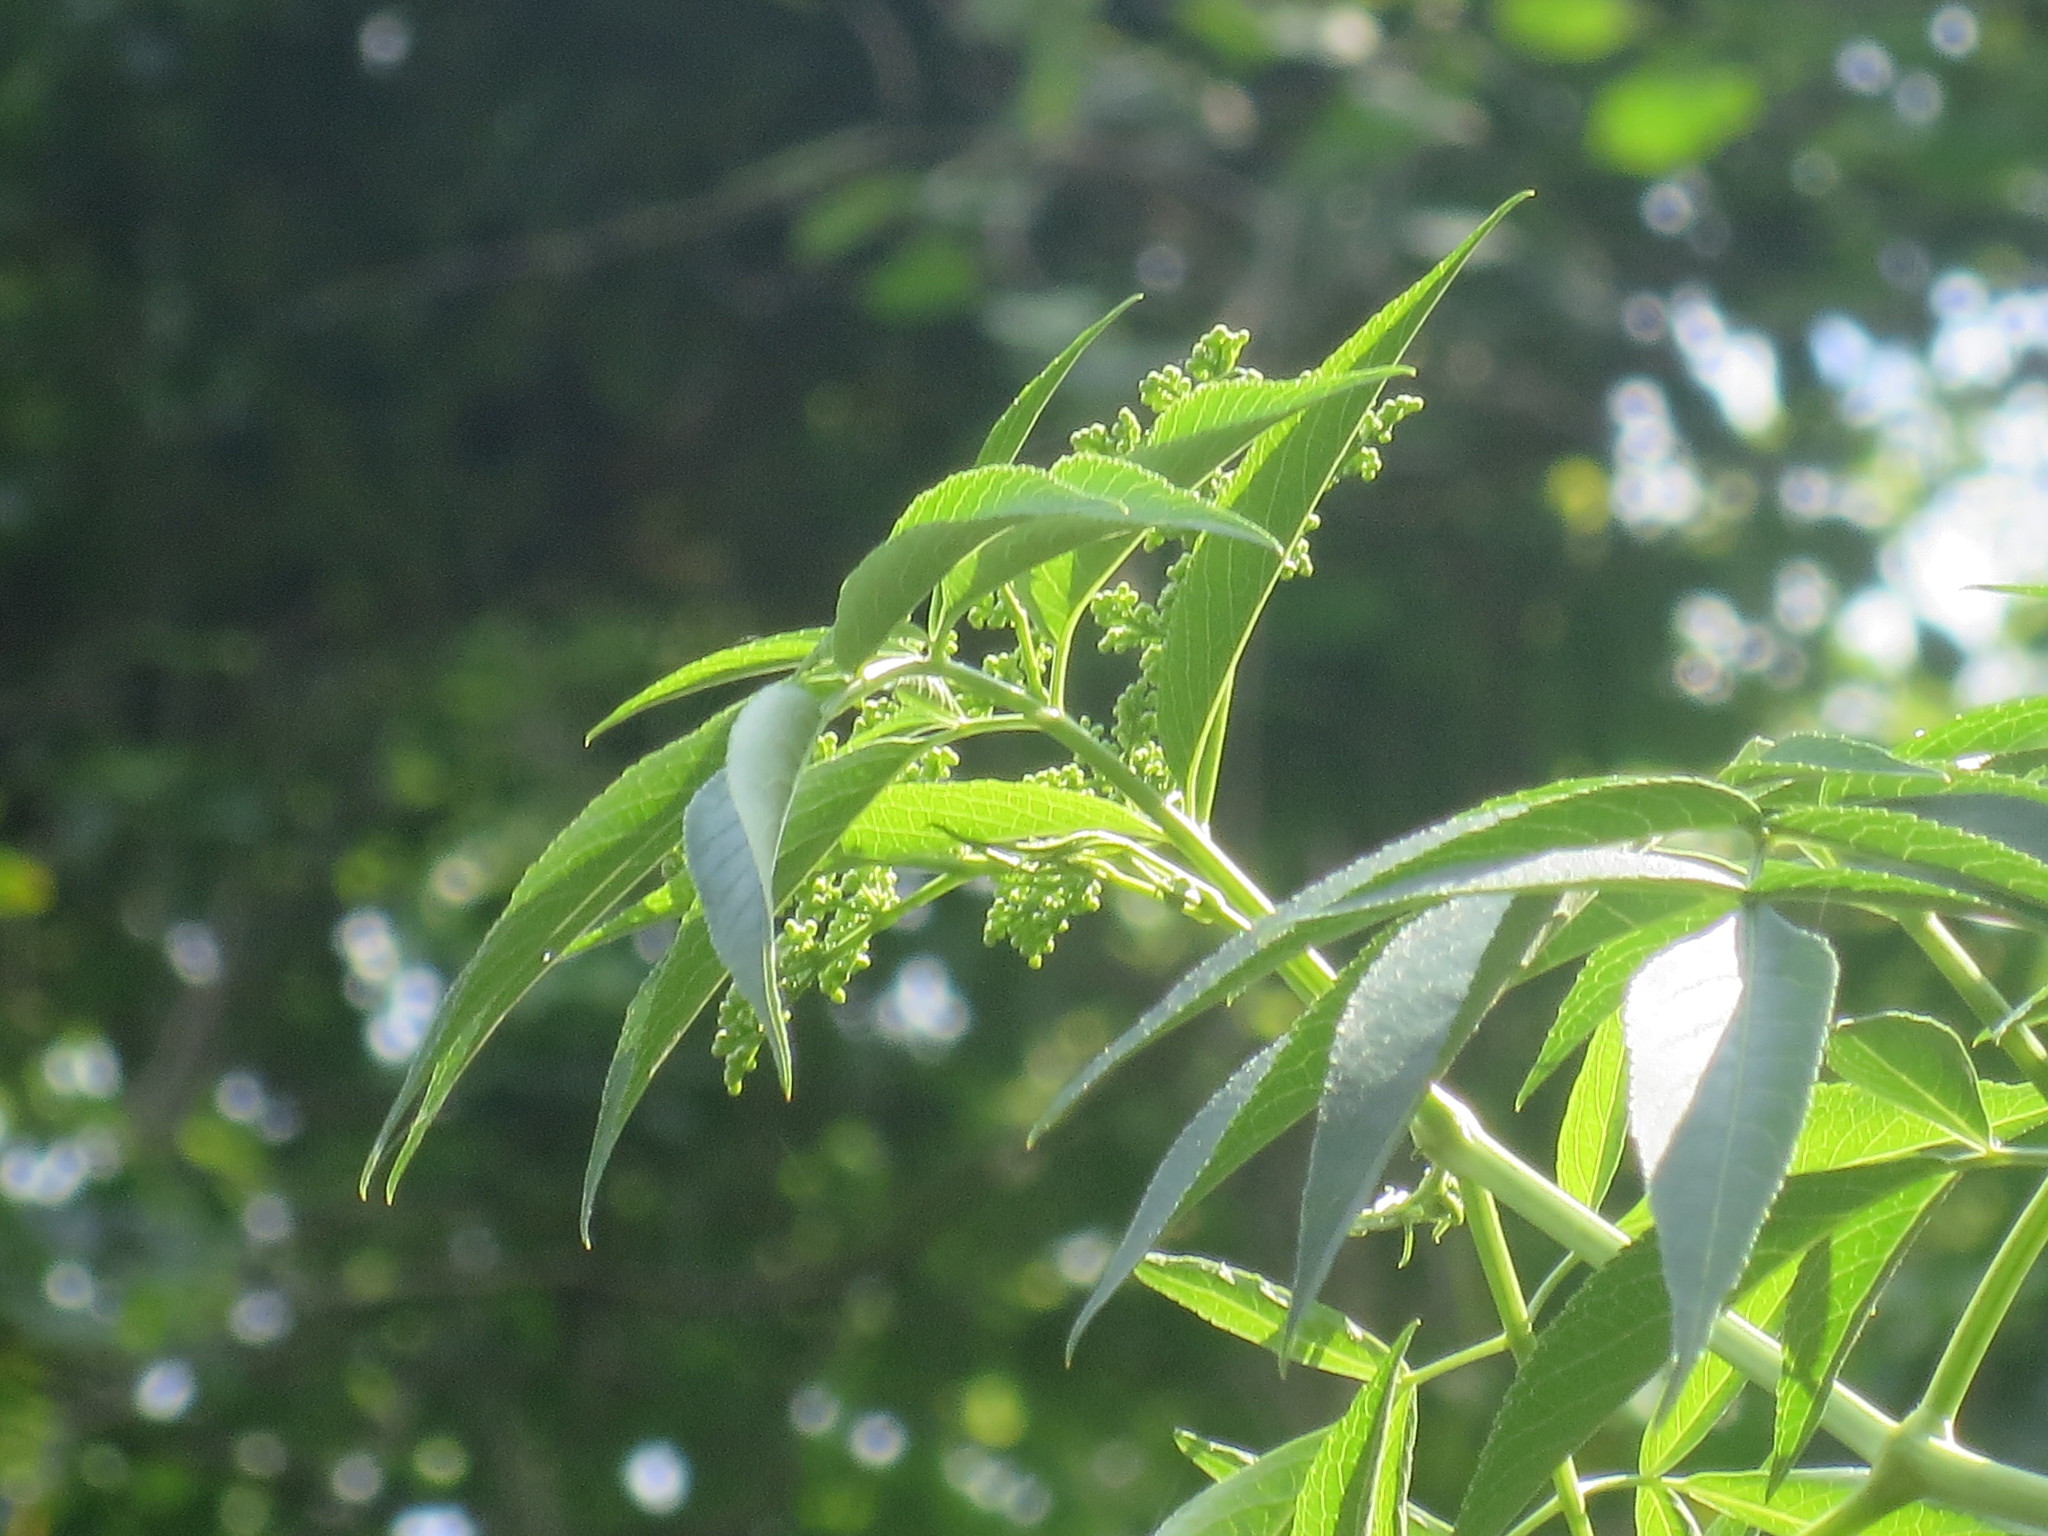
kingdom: Plantae
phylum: Tracheophyta
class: Magnoliopsida
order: Dipsacales
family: Viburnaceae
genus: Sambucus
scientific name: Sambucus canadensis
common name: American elder
